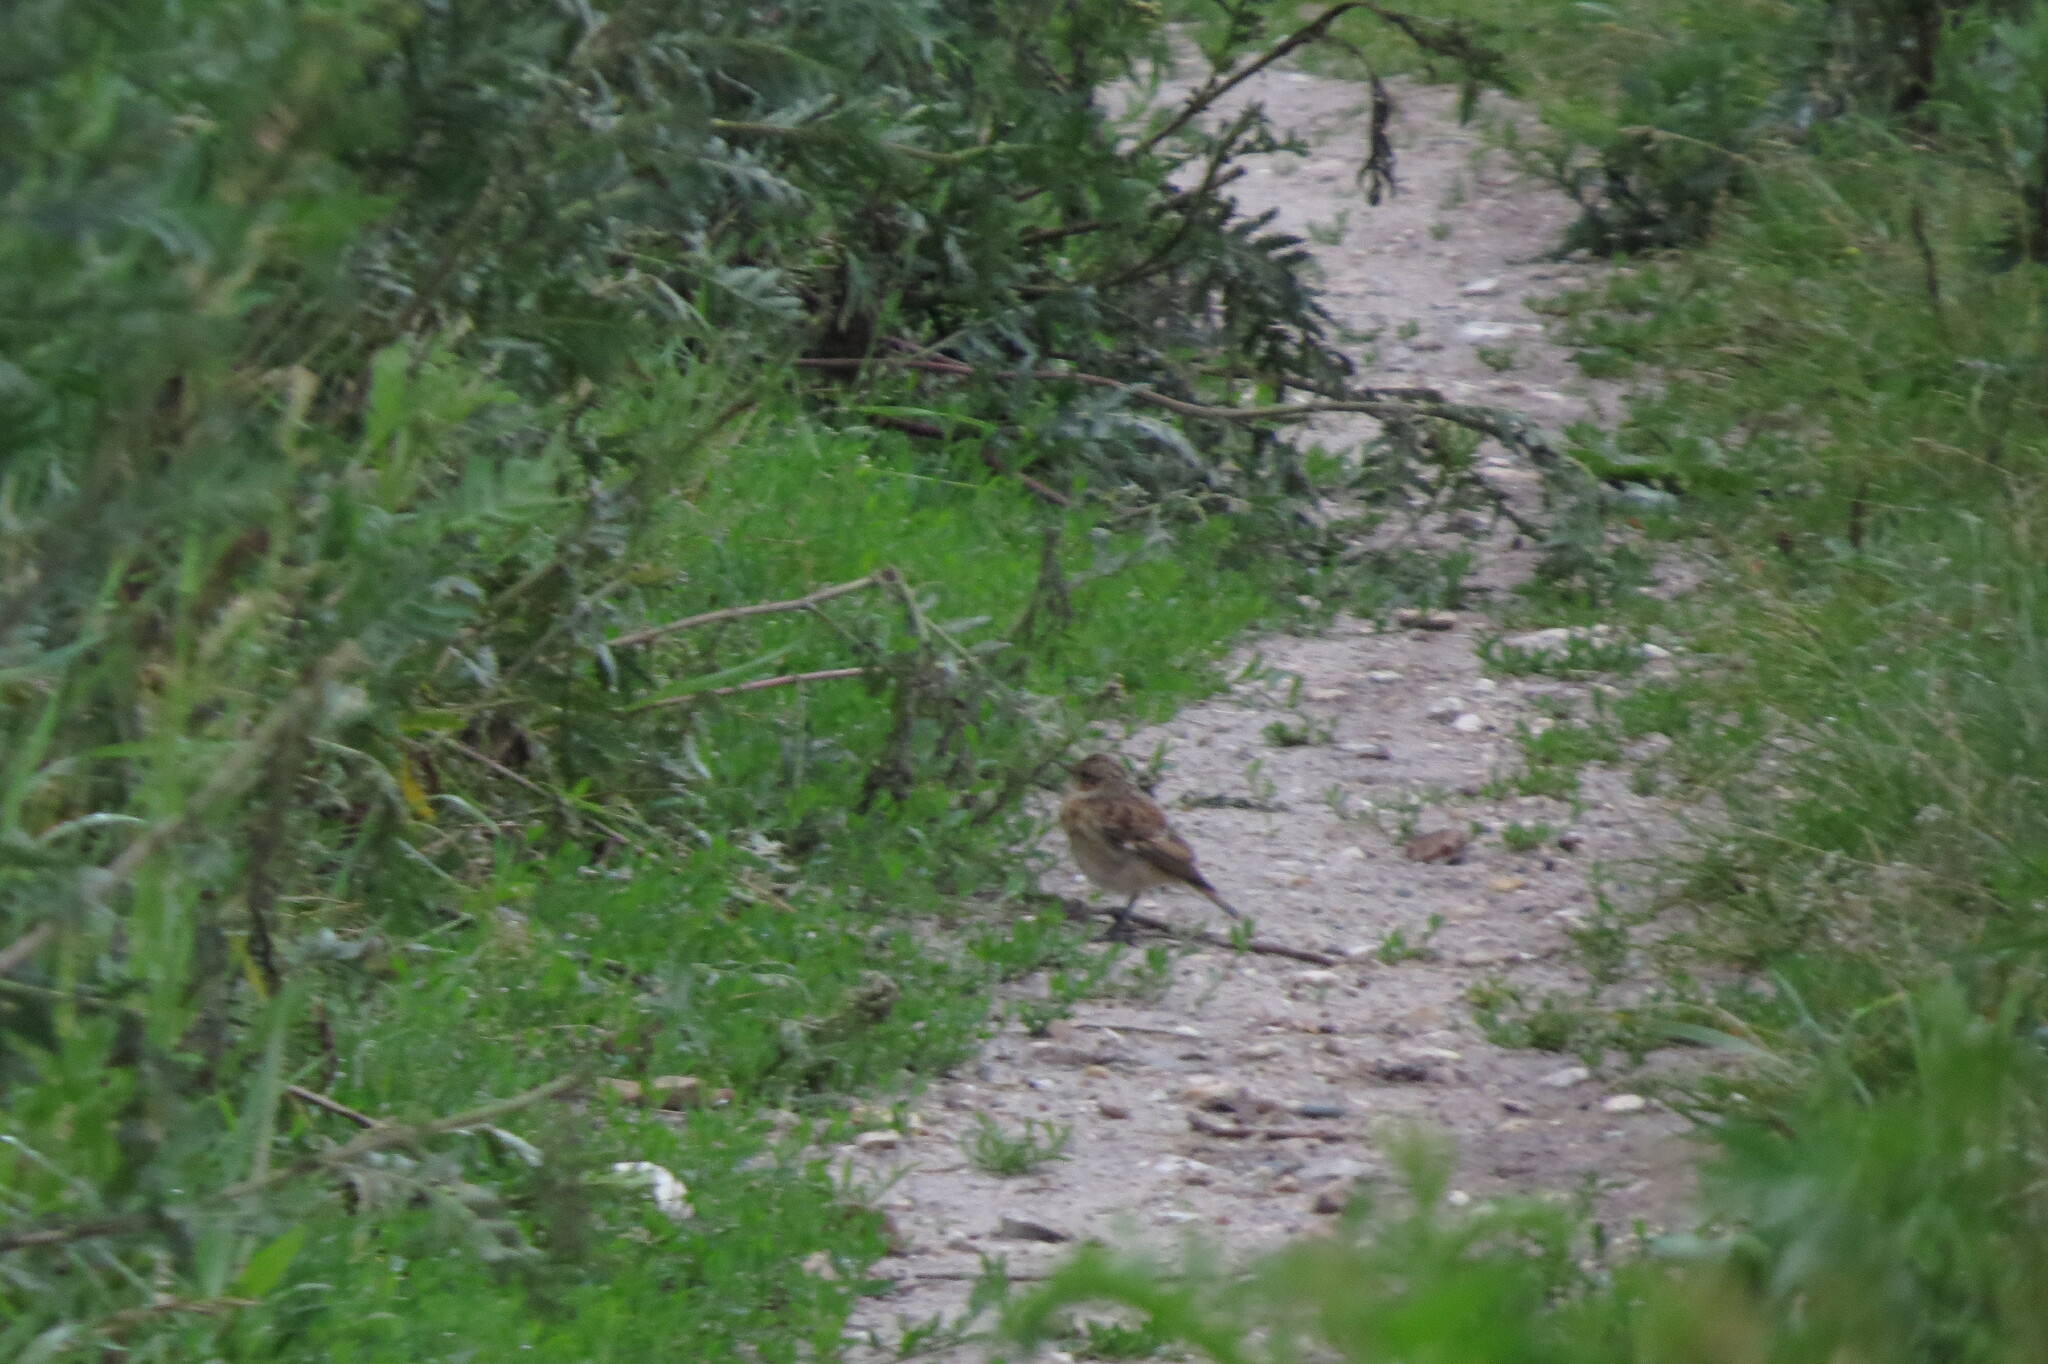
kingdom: Animalia
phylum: Chordata
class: Aves
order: Passeriformes
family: Muscicapidae
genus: Saxicola
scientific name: Saxicola rubetra
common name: Whinchat
